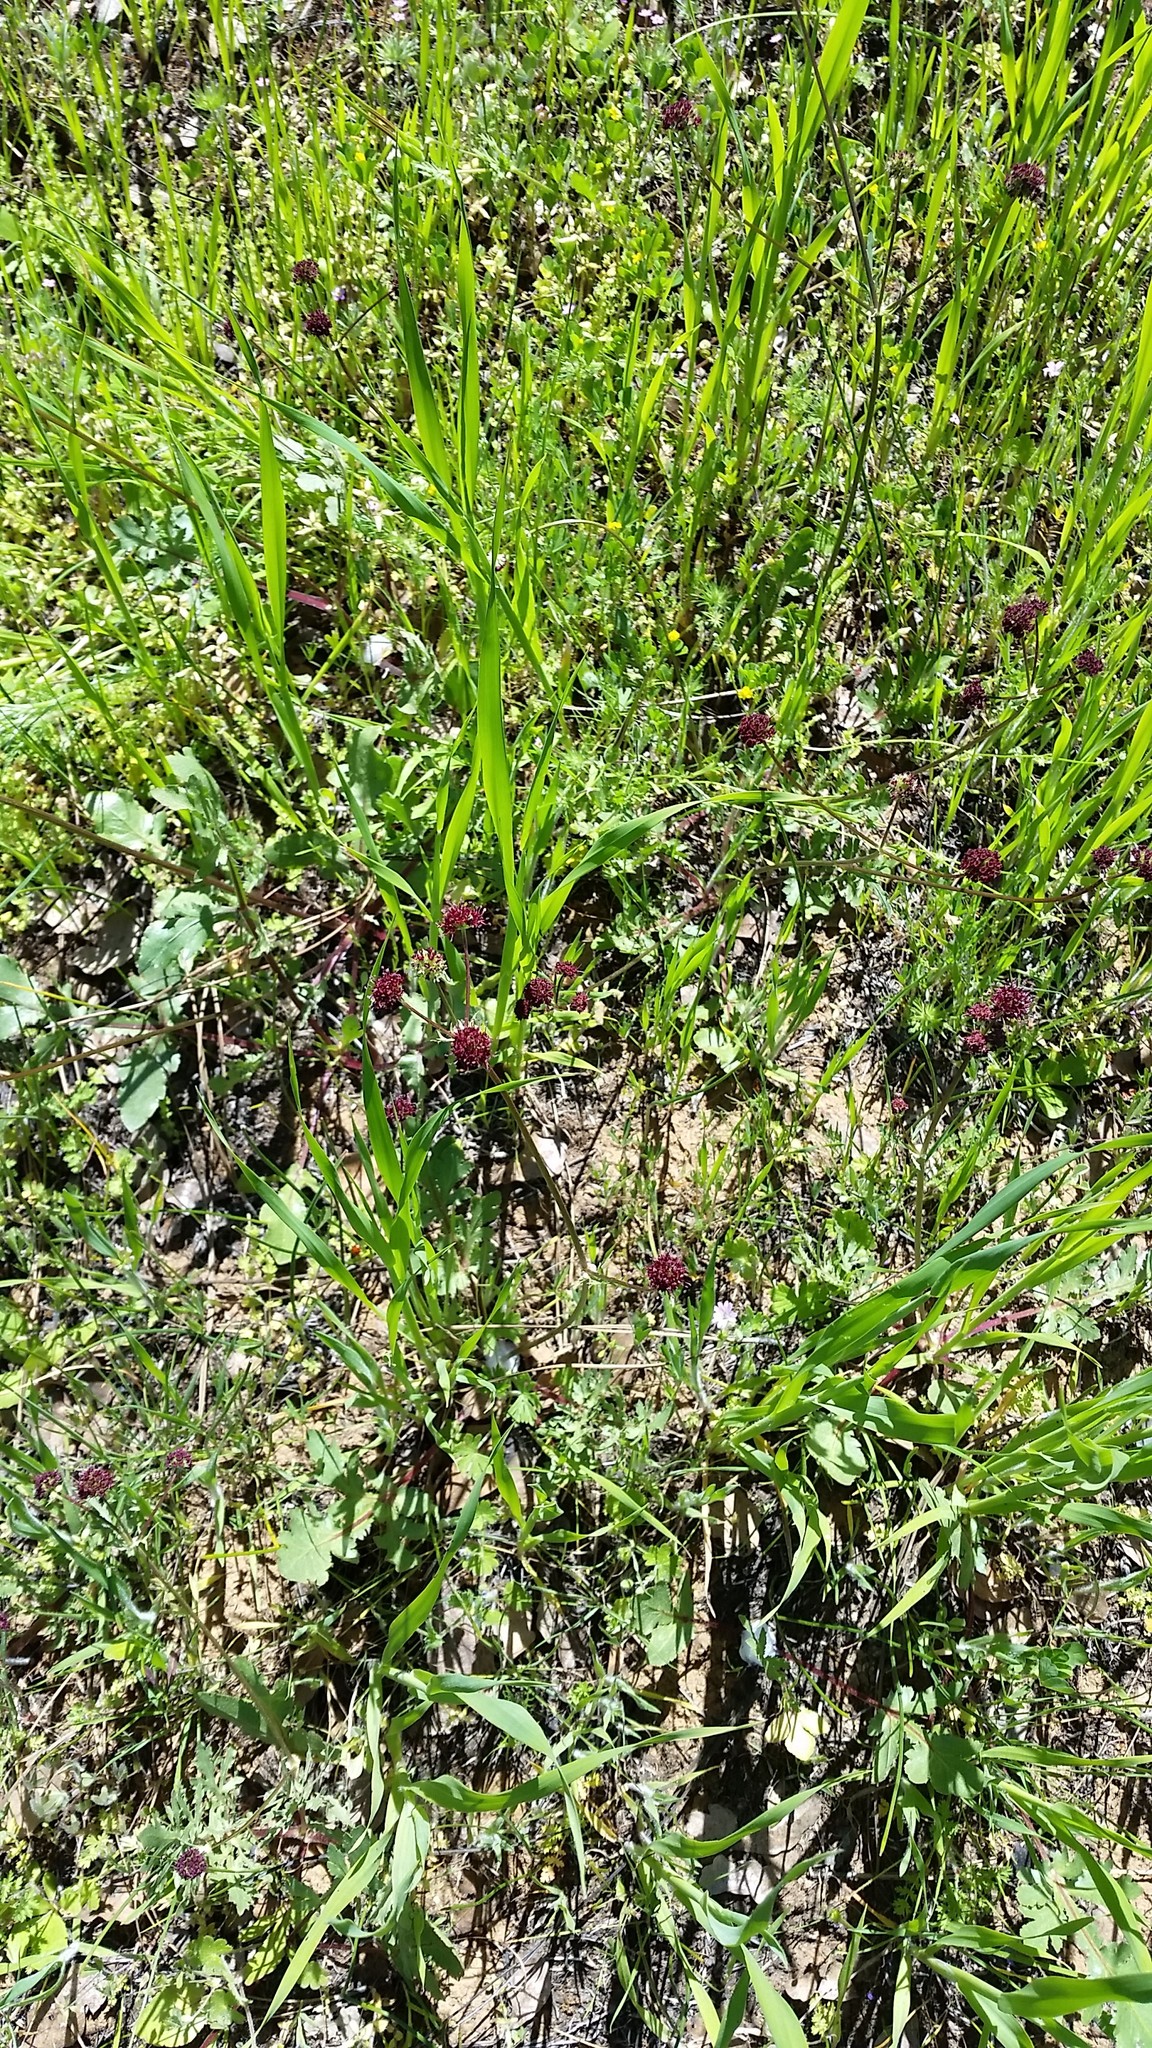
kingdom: Plantae
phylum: Tracheophyta
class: Magnoliopsida
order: Apiales
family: Apiaceae
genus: Sanicula
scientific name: Sanicula bipinnatifida
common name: Shoe-buttons
